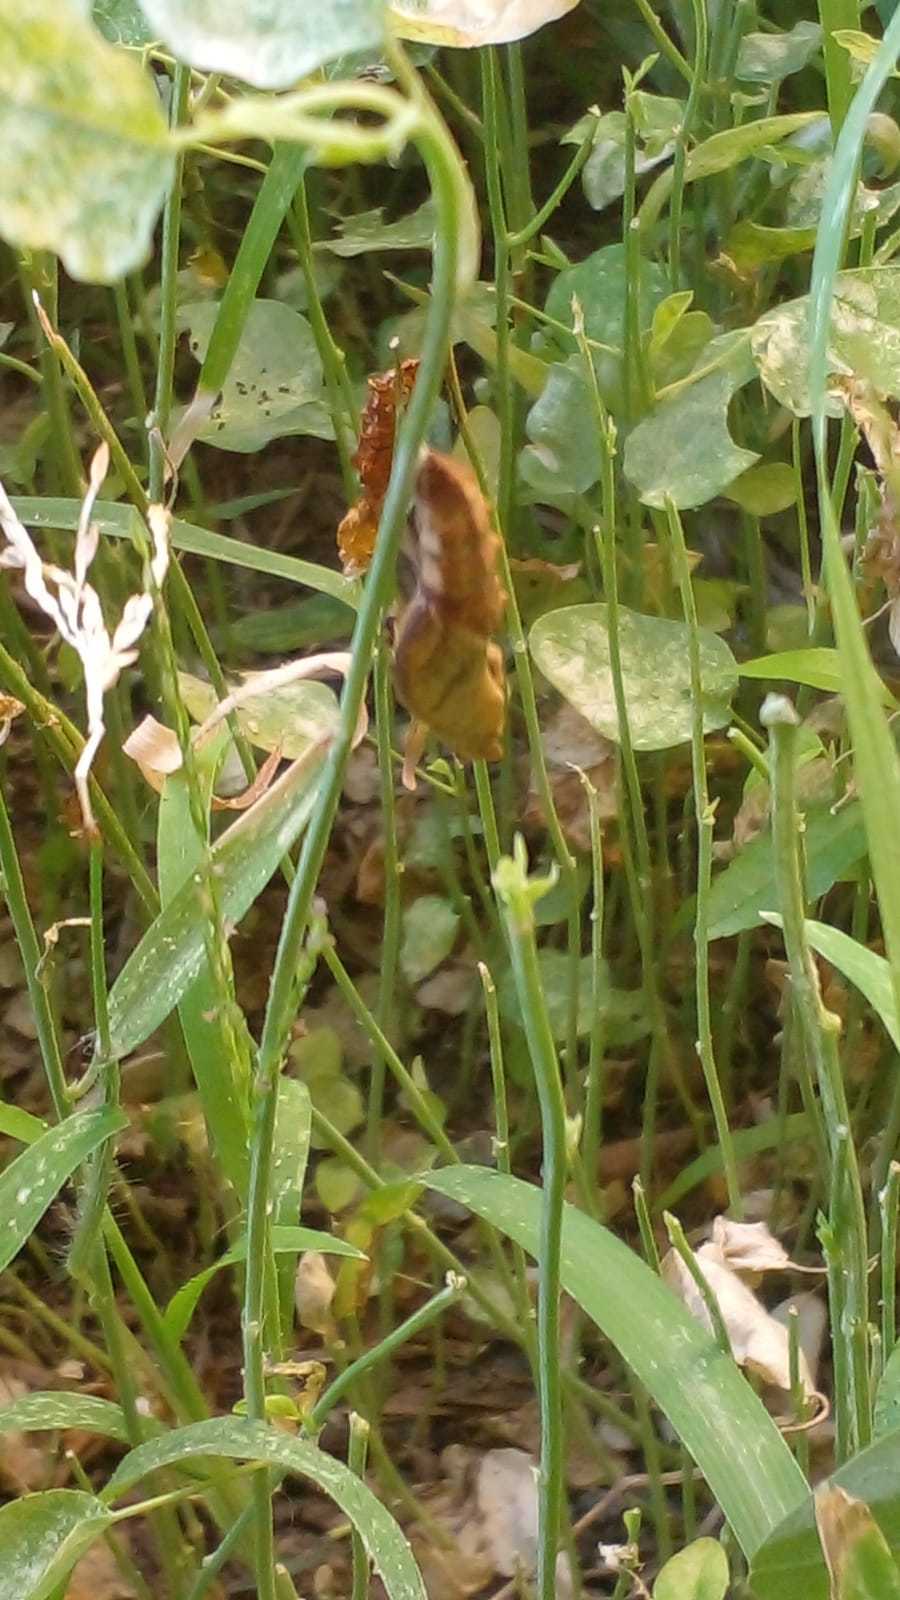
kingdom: Animalia
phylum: Arthropoda
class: Insecta
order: Lepidoptera
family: Nymphalidae
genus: Dione
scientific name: Dione vanillae
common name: Gulf fritillary
